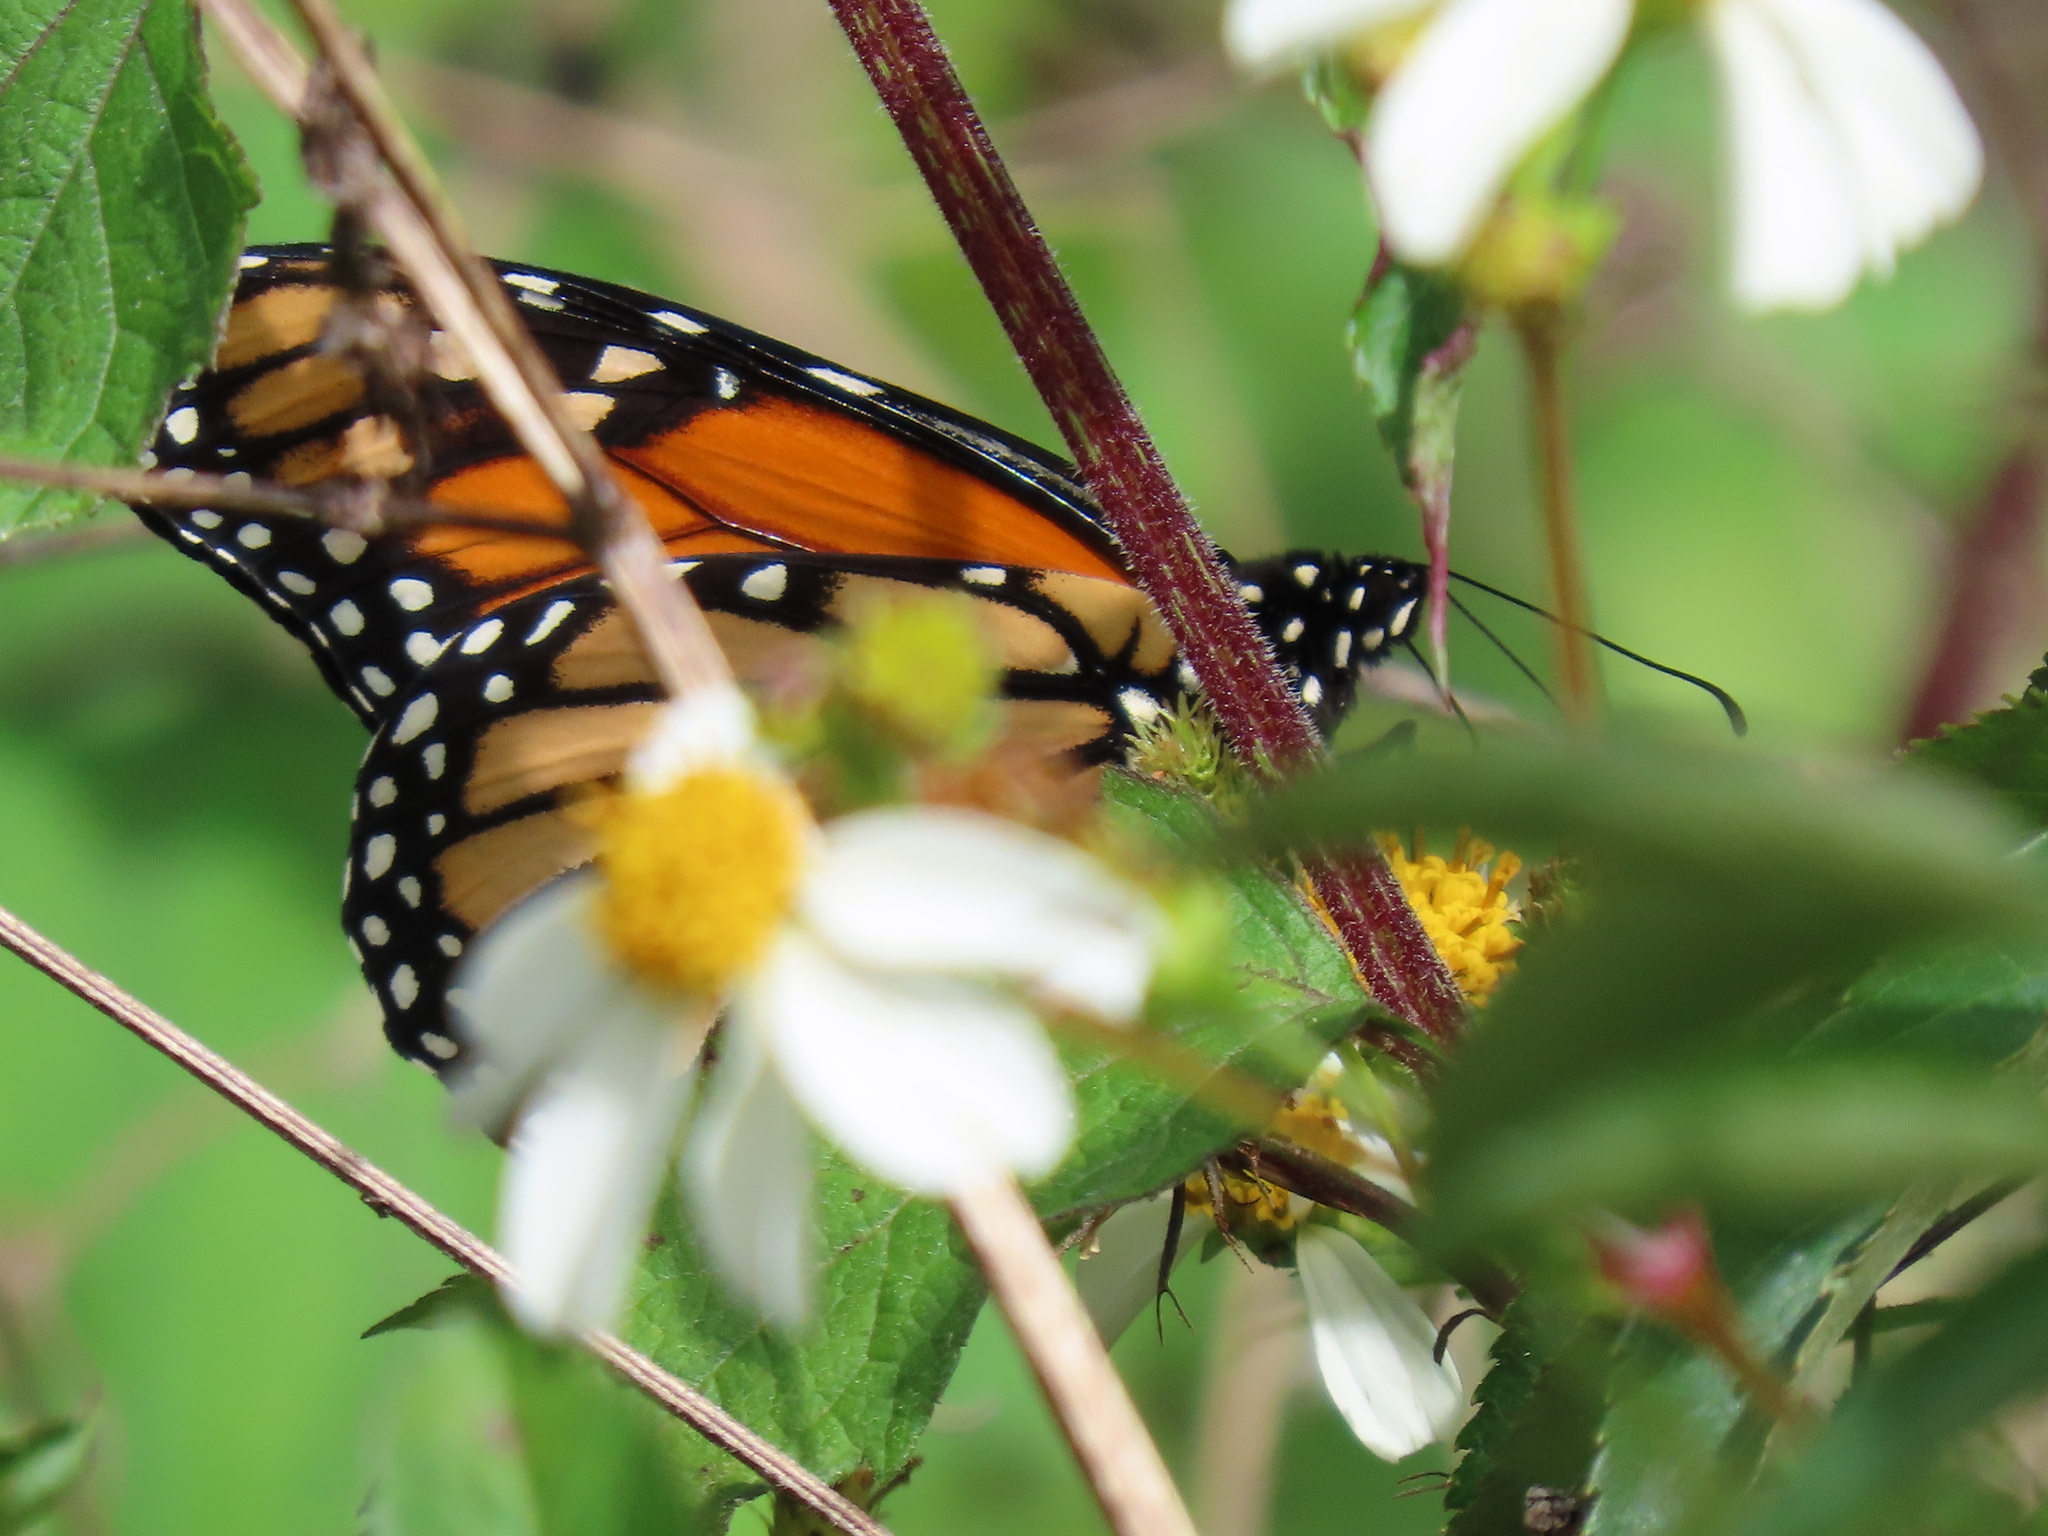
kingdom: Animalia
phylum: Arthropoda
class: Insecta
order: Lepidoptera
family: Nymphalidae
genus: Danaus
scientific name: Danaus plexippus
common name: Monarch
